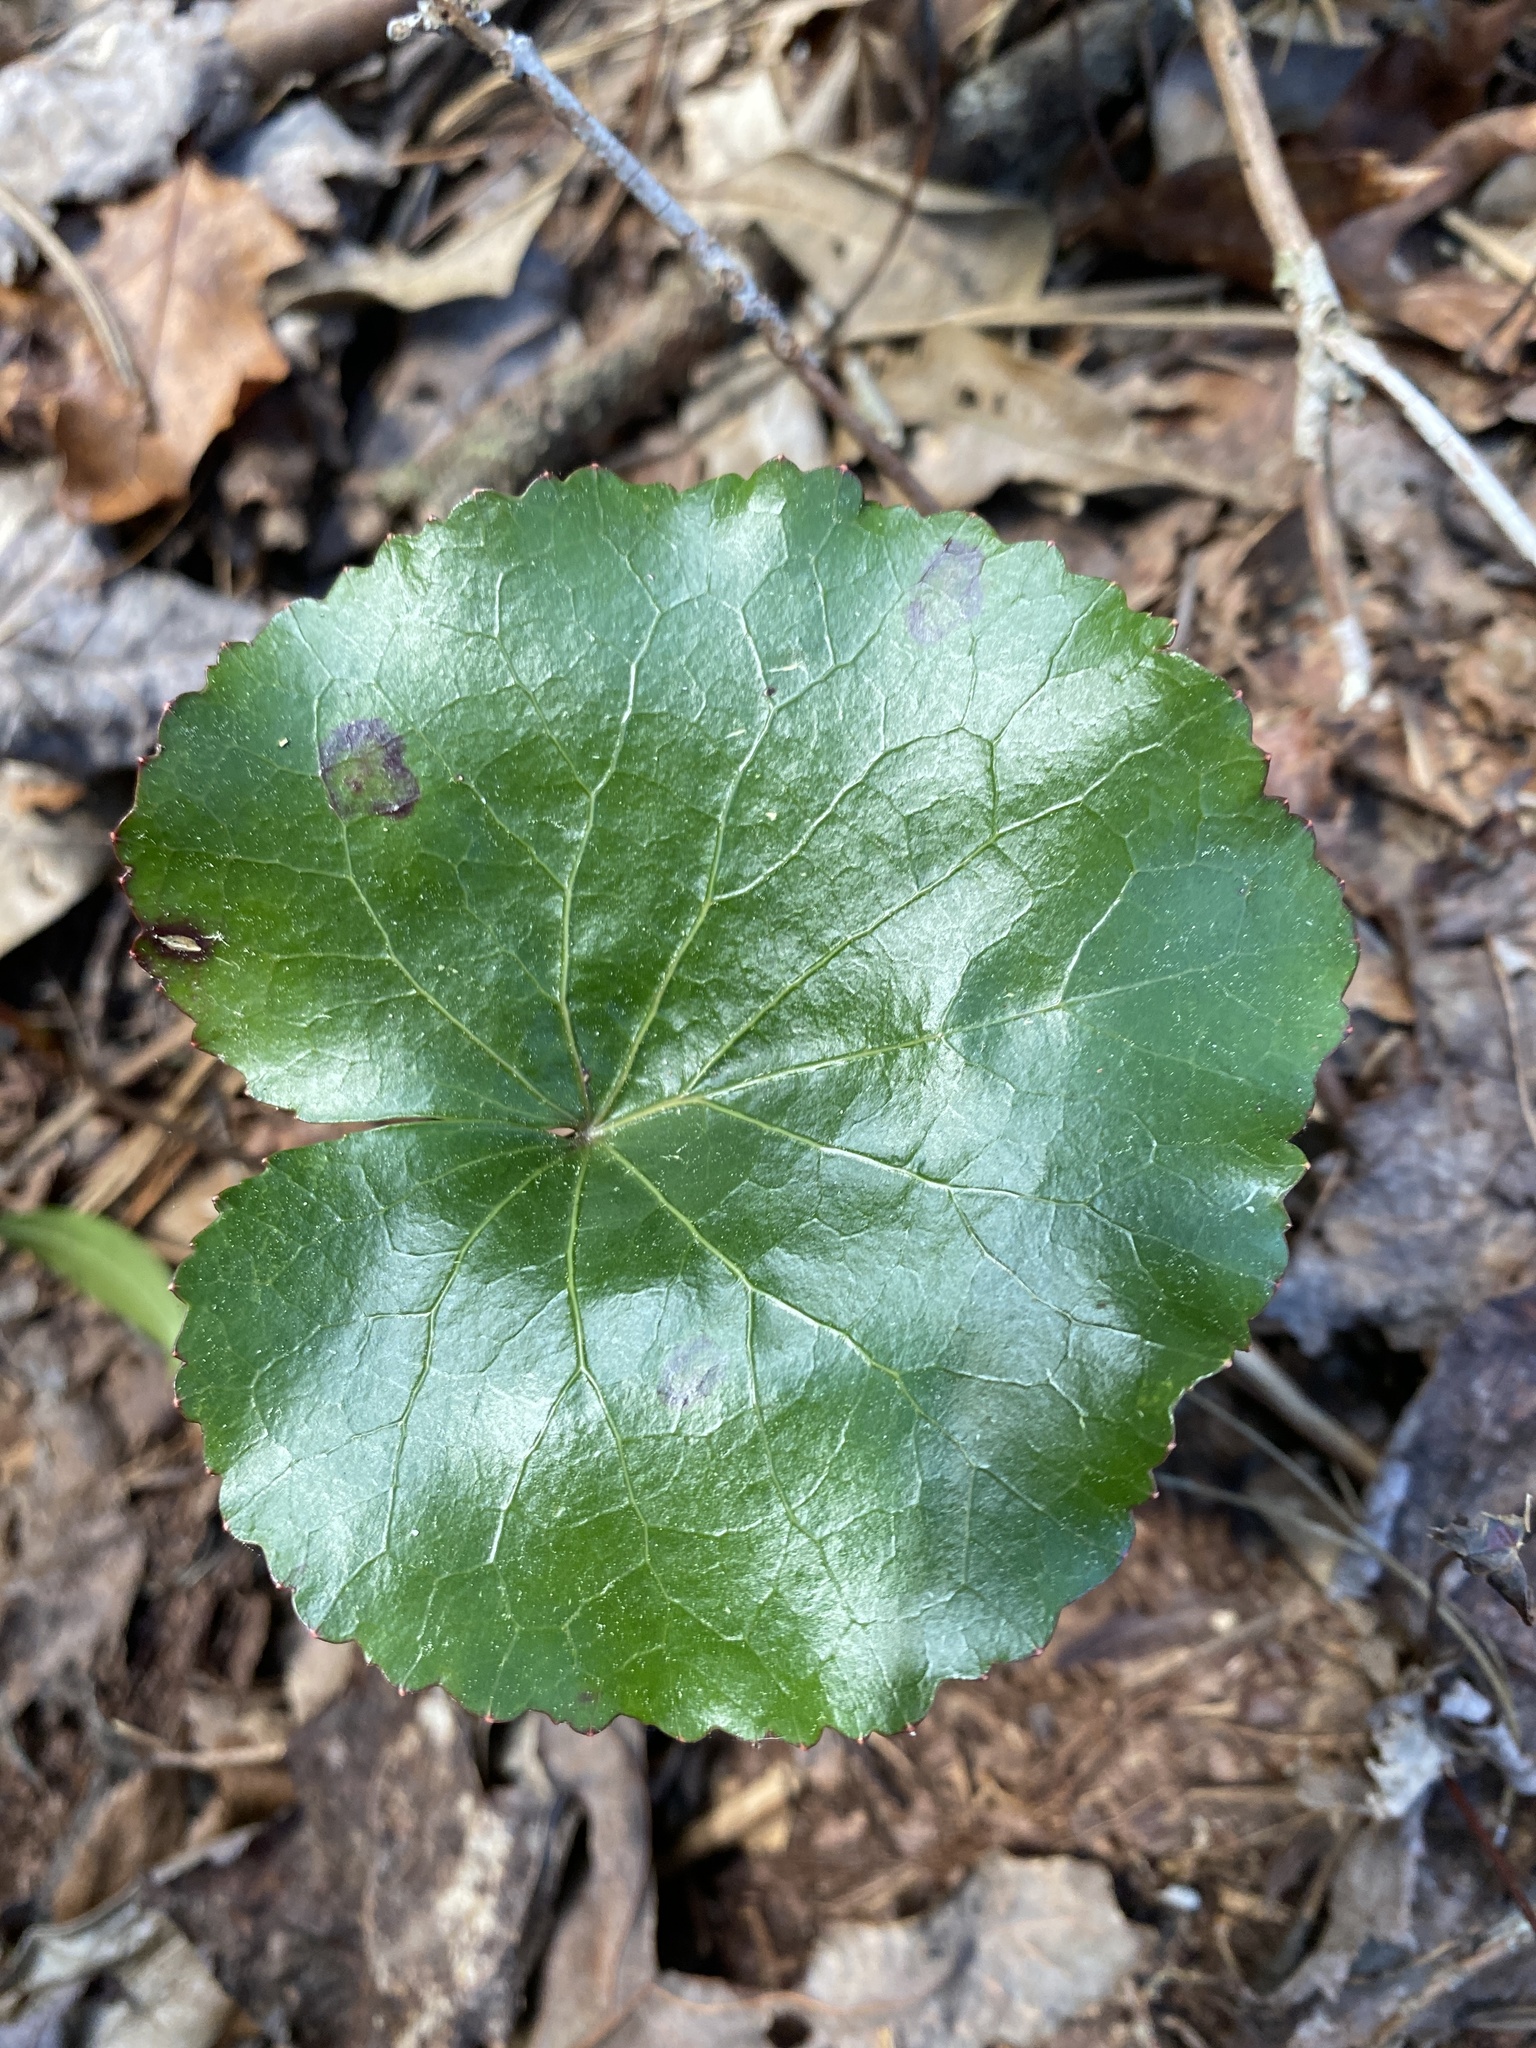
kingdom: Plantae
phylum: Tracheophyta
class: Magnoliopsida
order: Ericales
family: Diapensiaceae
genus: Galax
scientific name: Galax urceolata
